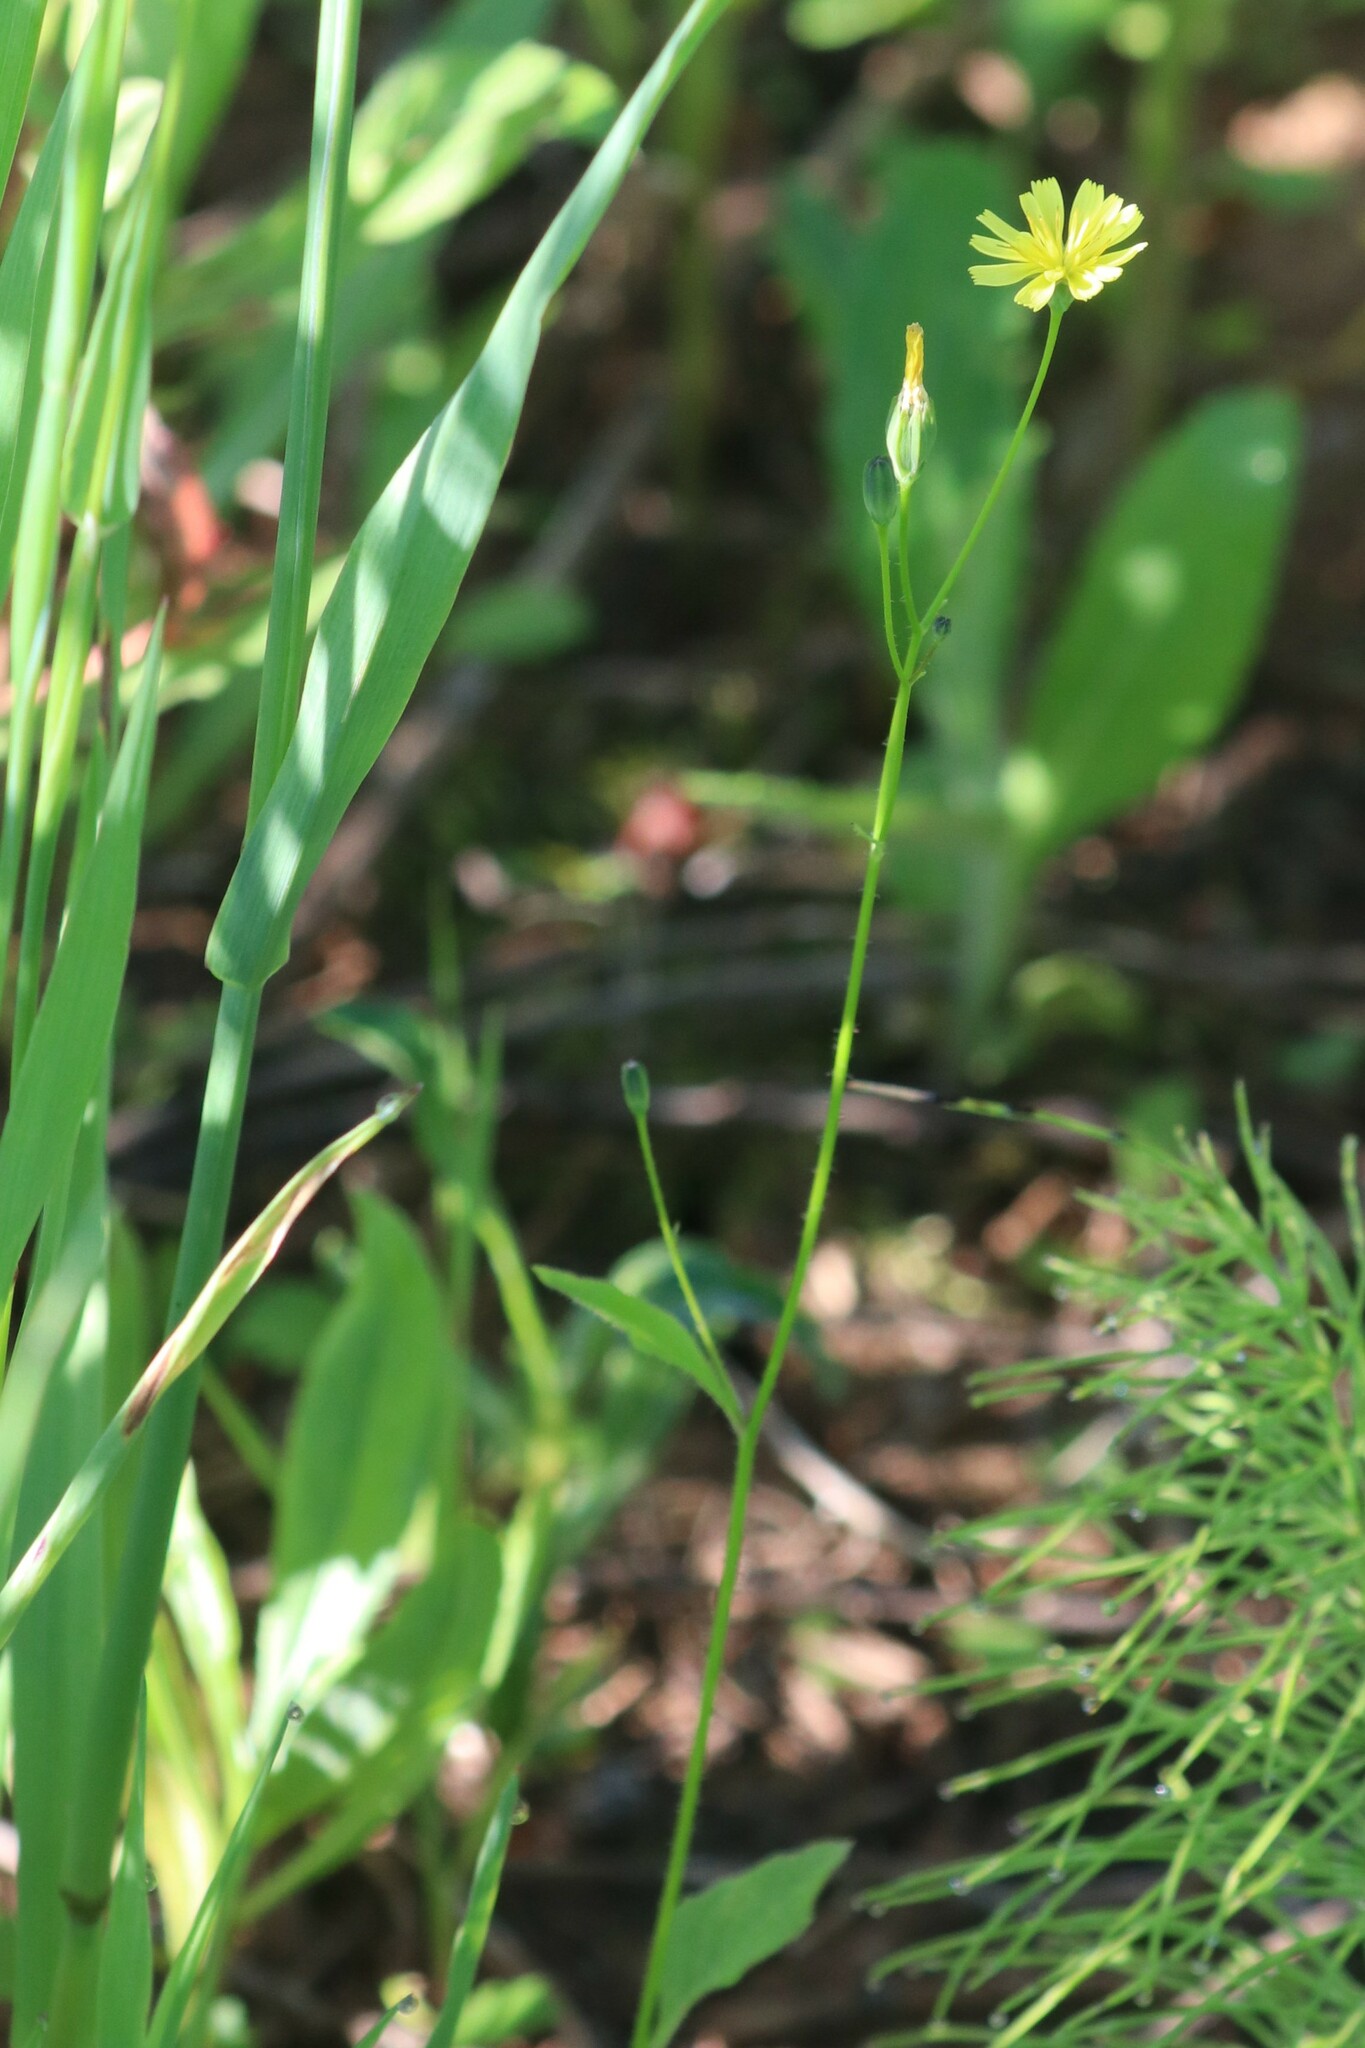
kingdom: Plantae
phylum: Tracheophyta
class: Magnoliopsida
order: Asterales
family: Asteraceae
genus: Lapsana
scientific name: Lapsana communis
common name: Nipplewort
